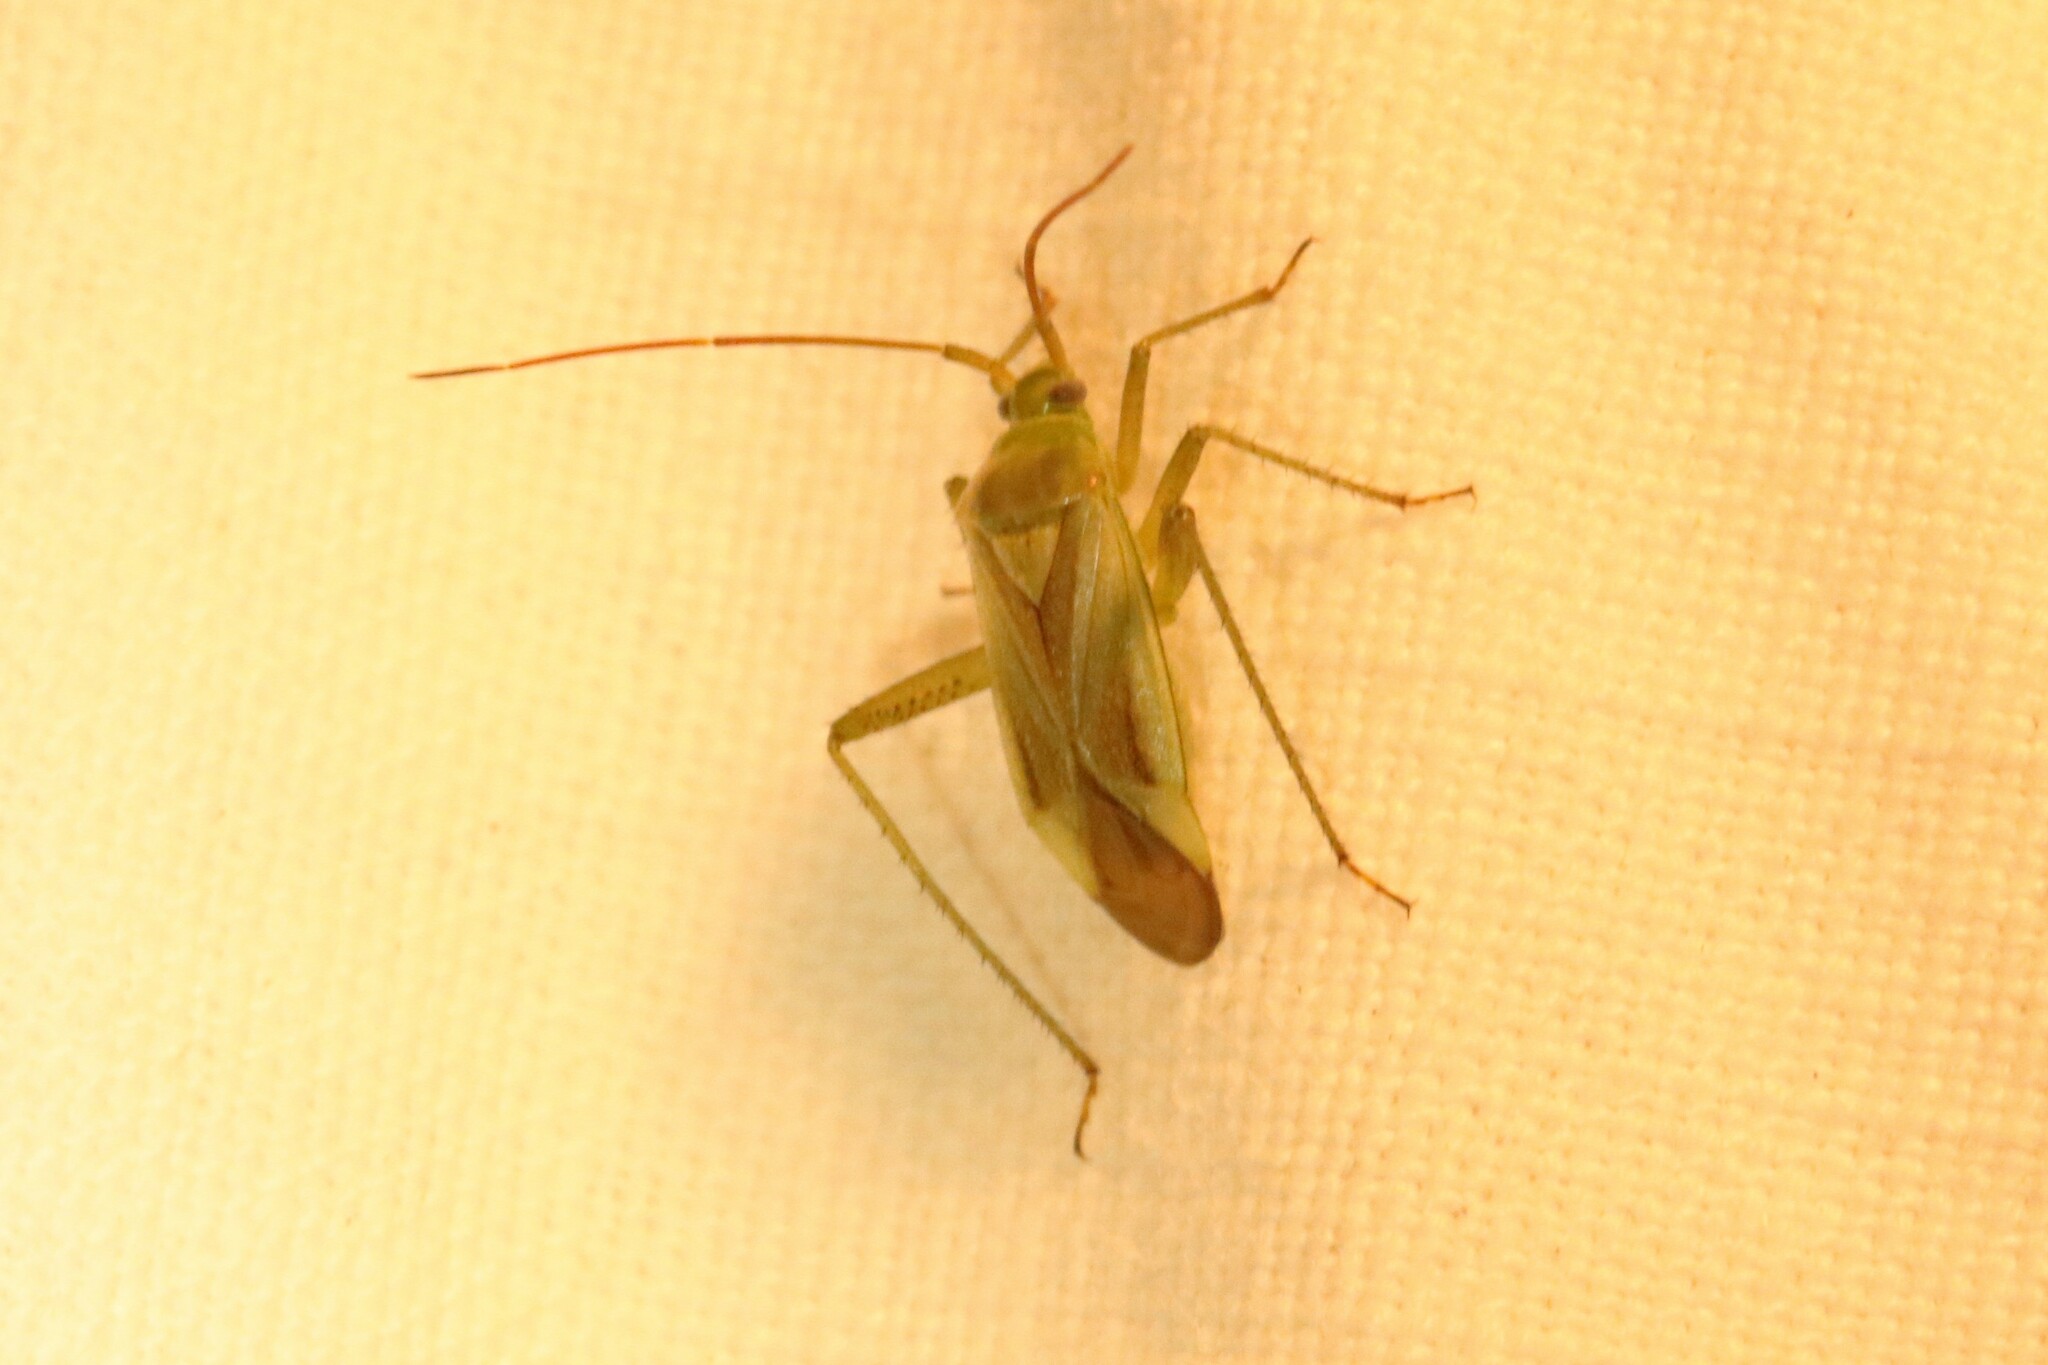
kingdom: Animalia
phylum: Arthropoda
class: Insecta
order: Hemiptera
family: Miridae
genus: Adelphocoris
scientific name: Adelphocoris lineolatus
